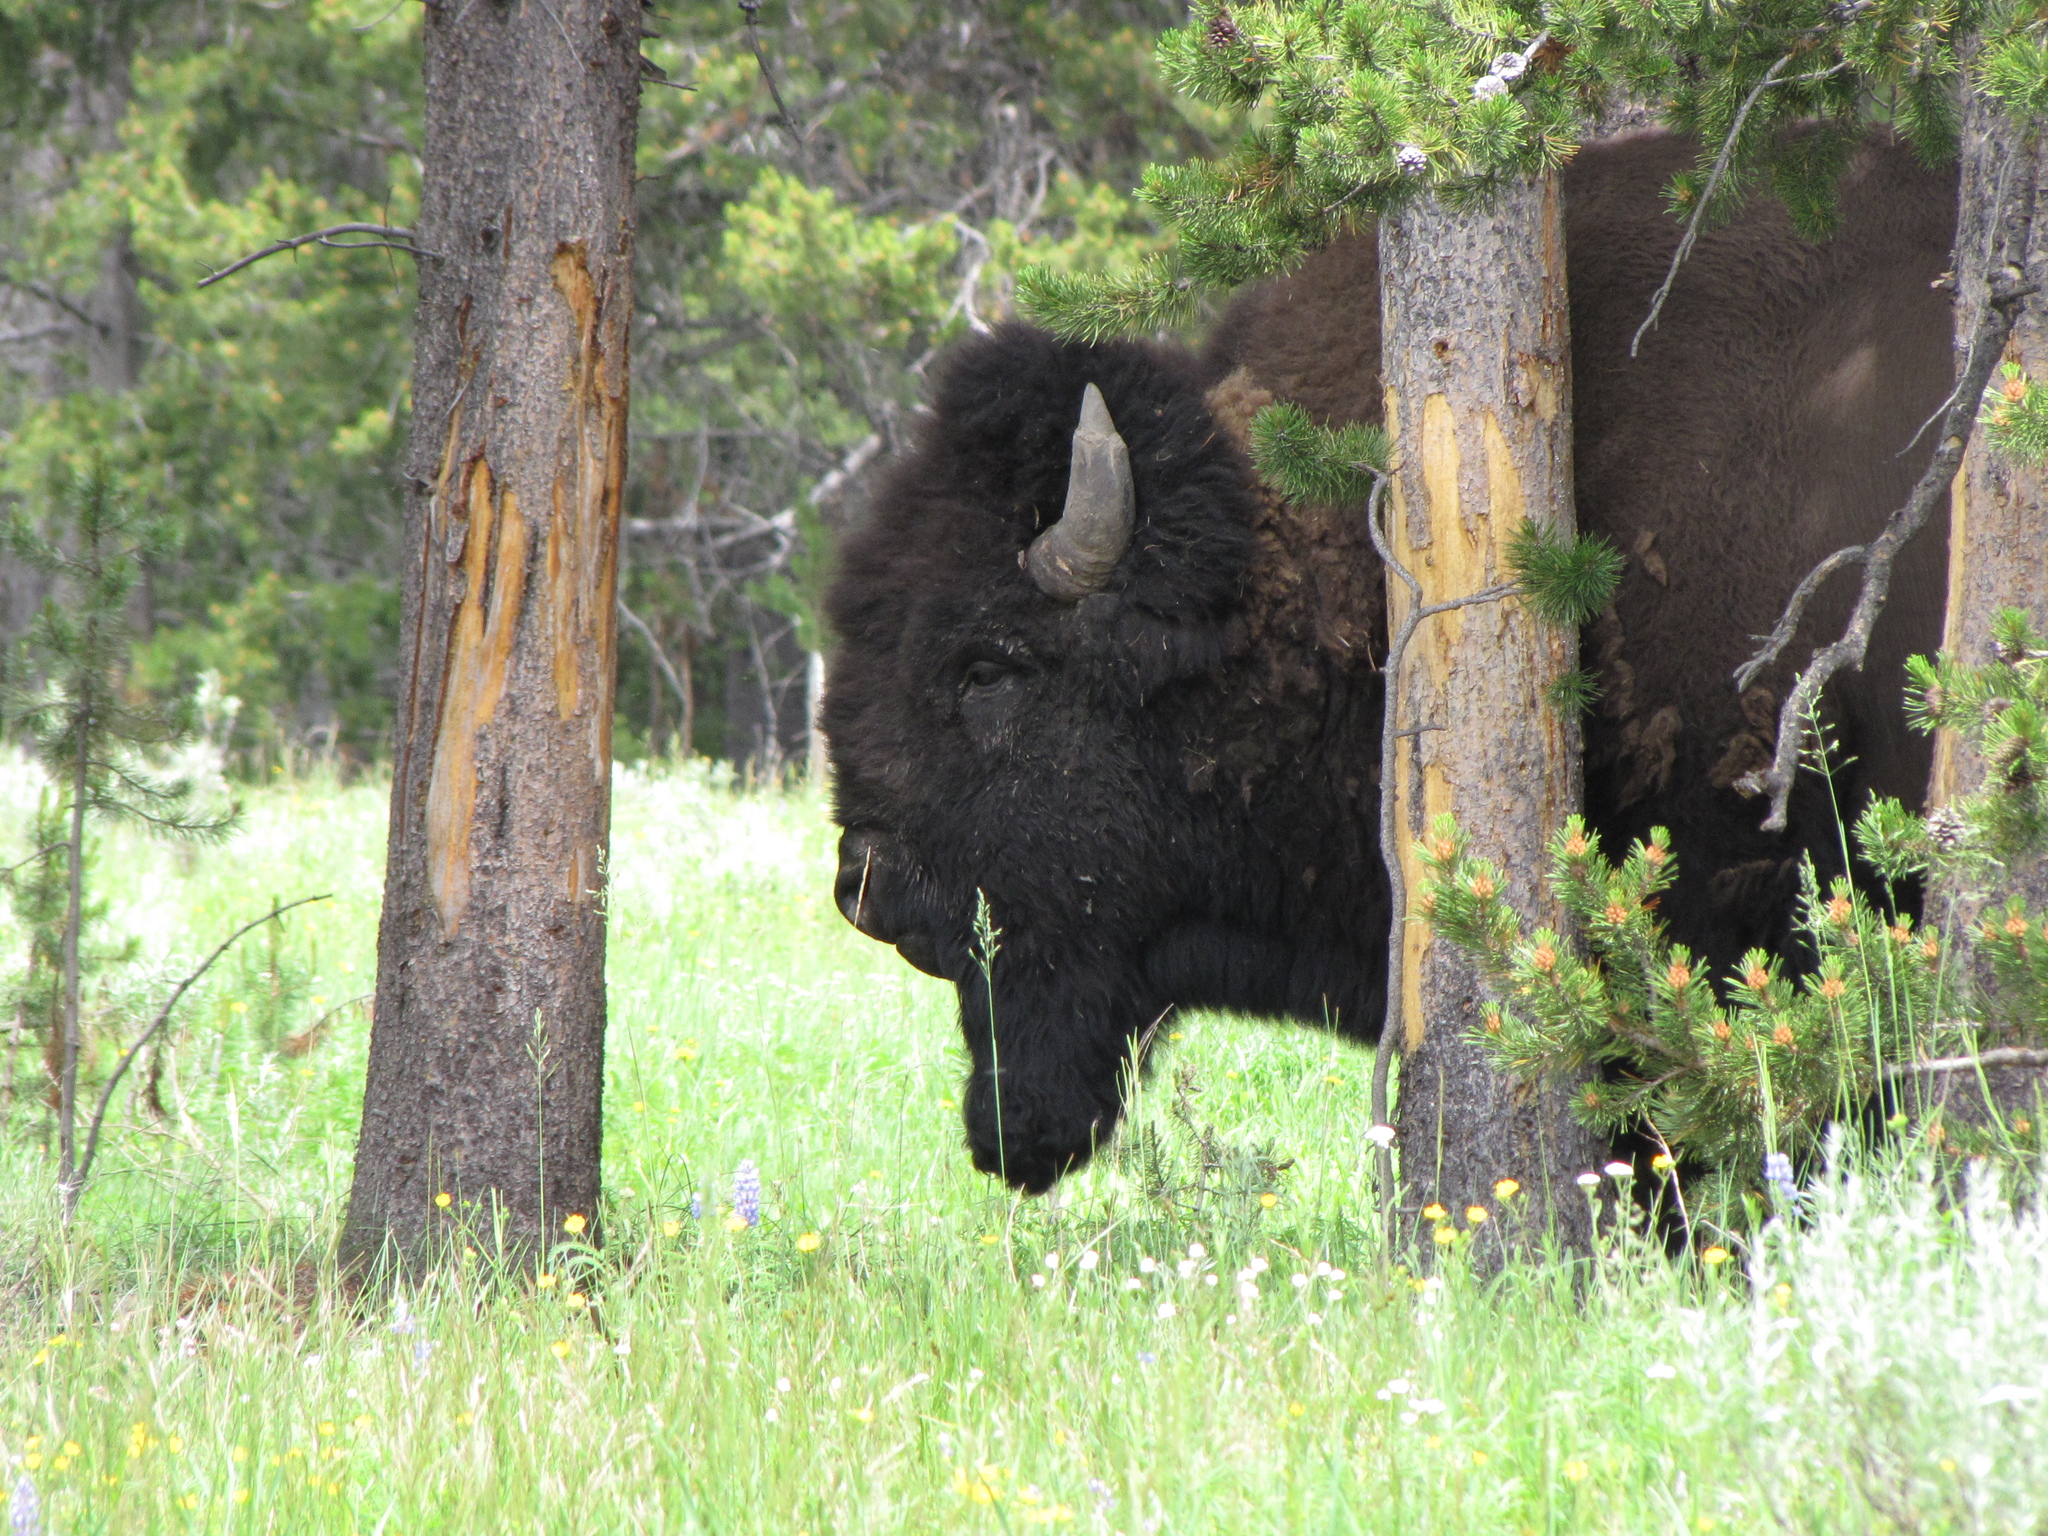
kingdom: Animalia
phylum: Chordata
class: Mammalia
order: Artiodactyla
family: Bovidae
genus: Bison
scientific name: Bison bison
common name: American bison
